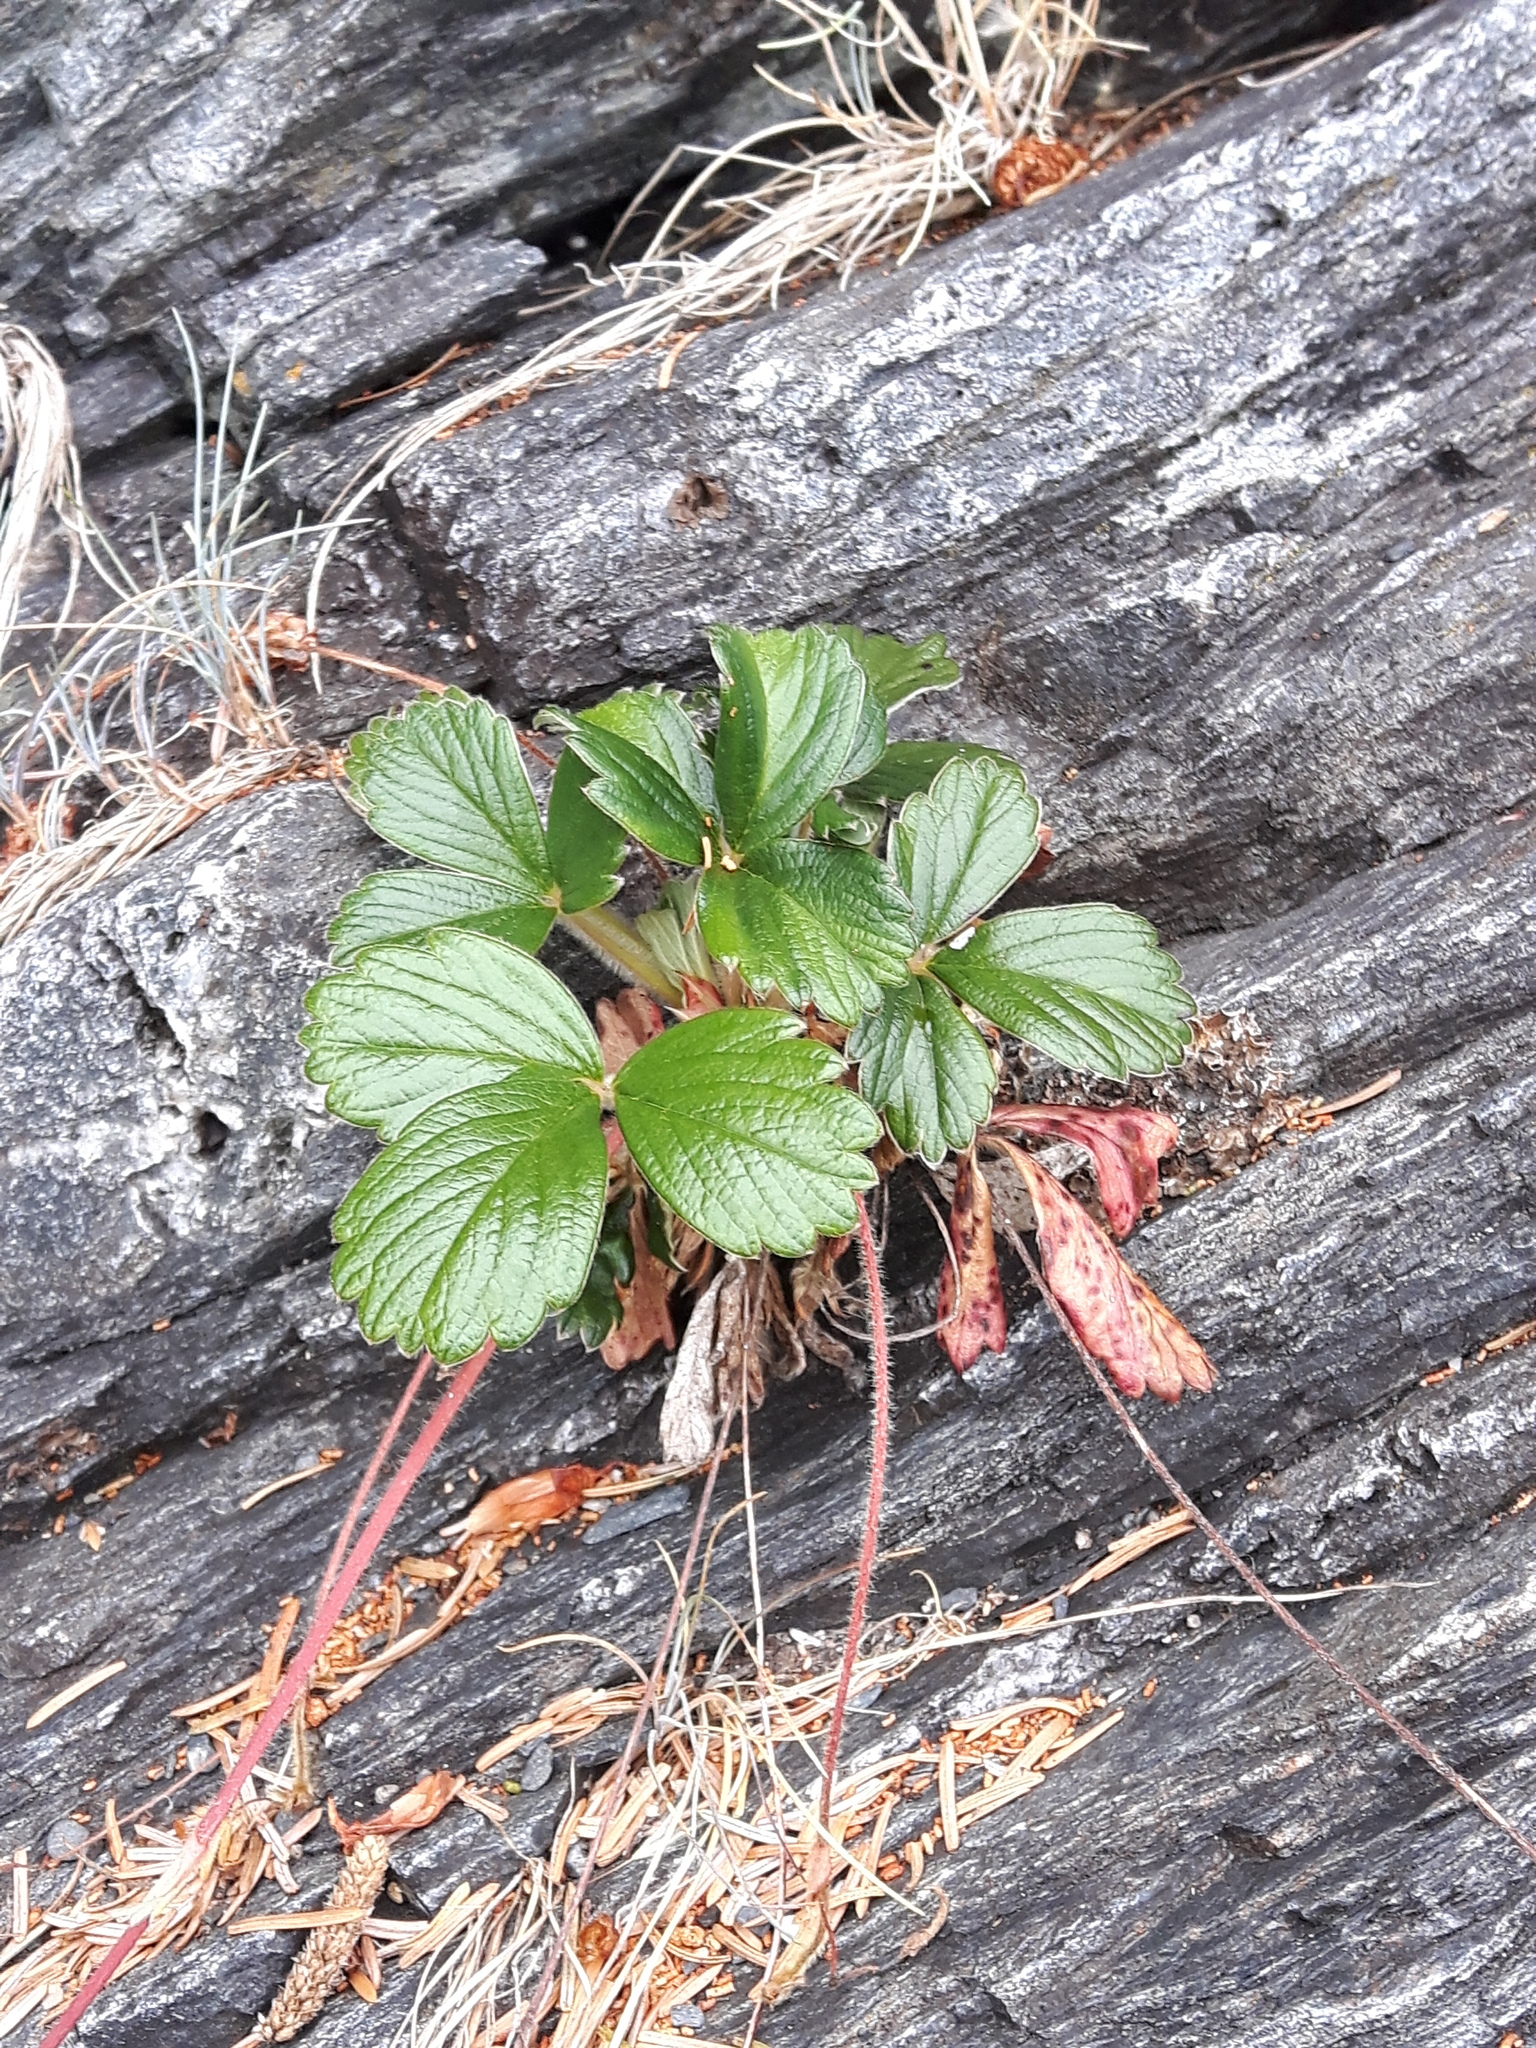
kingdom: Plantae
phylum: Tracheophyta
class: Magnoliopsida
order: Rosales
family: Rosaceae
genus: Fragaria
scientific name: Fragaria chiloensis
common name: Beach strawberry
